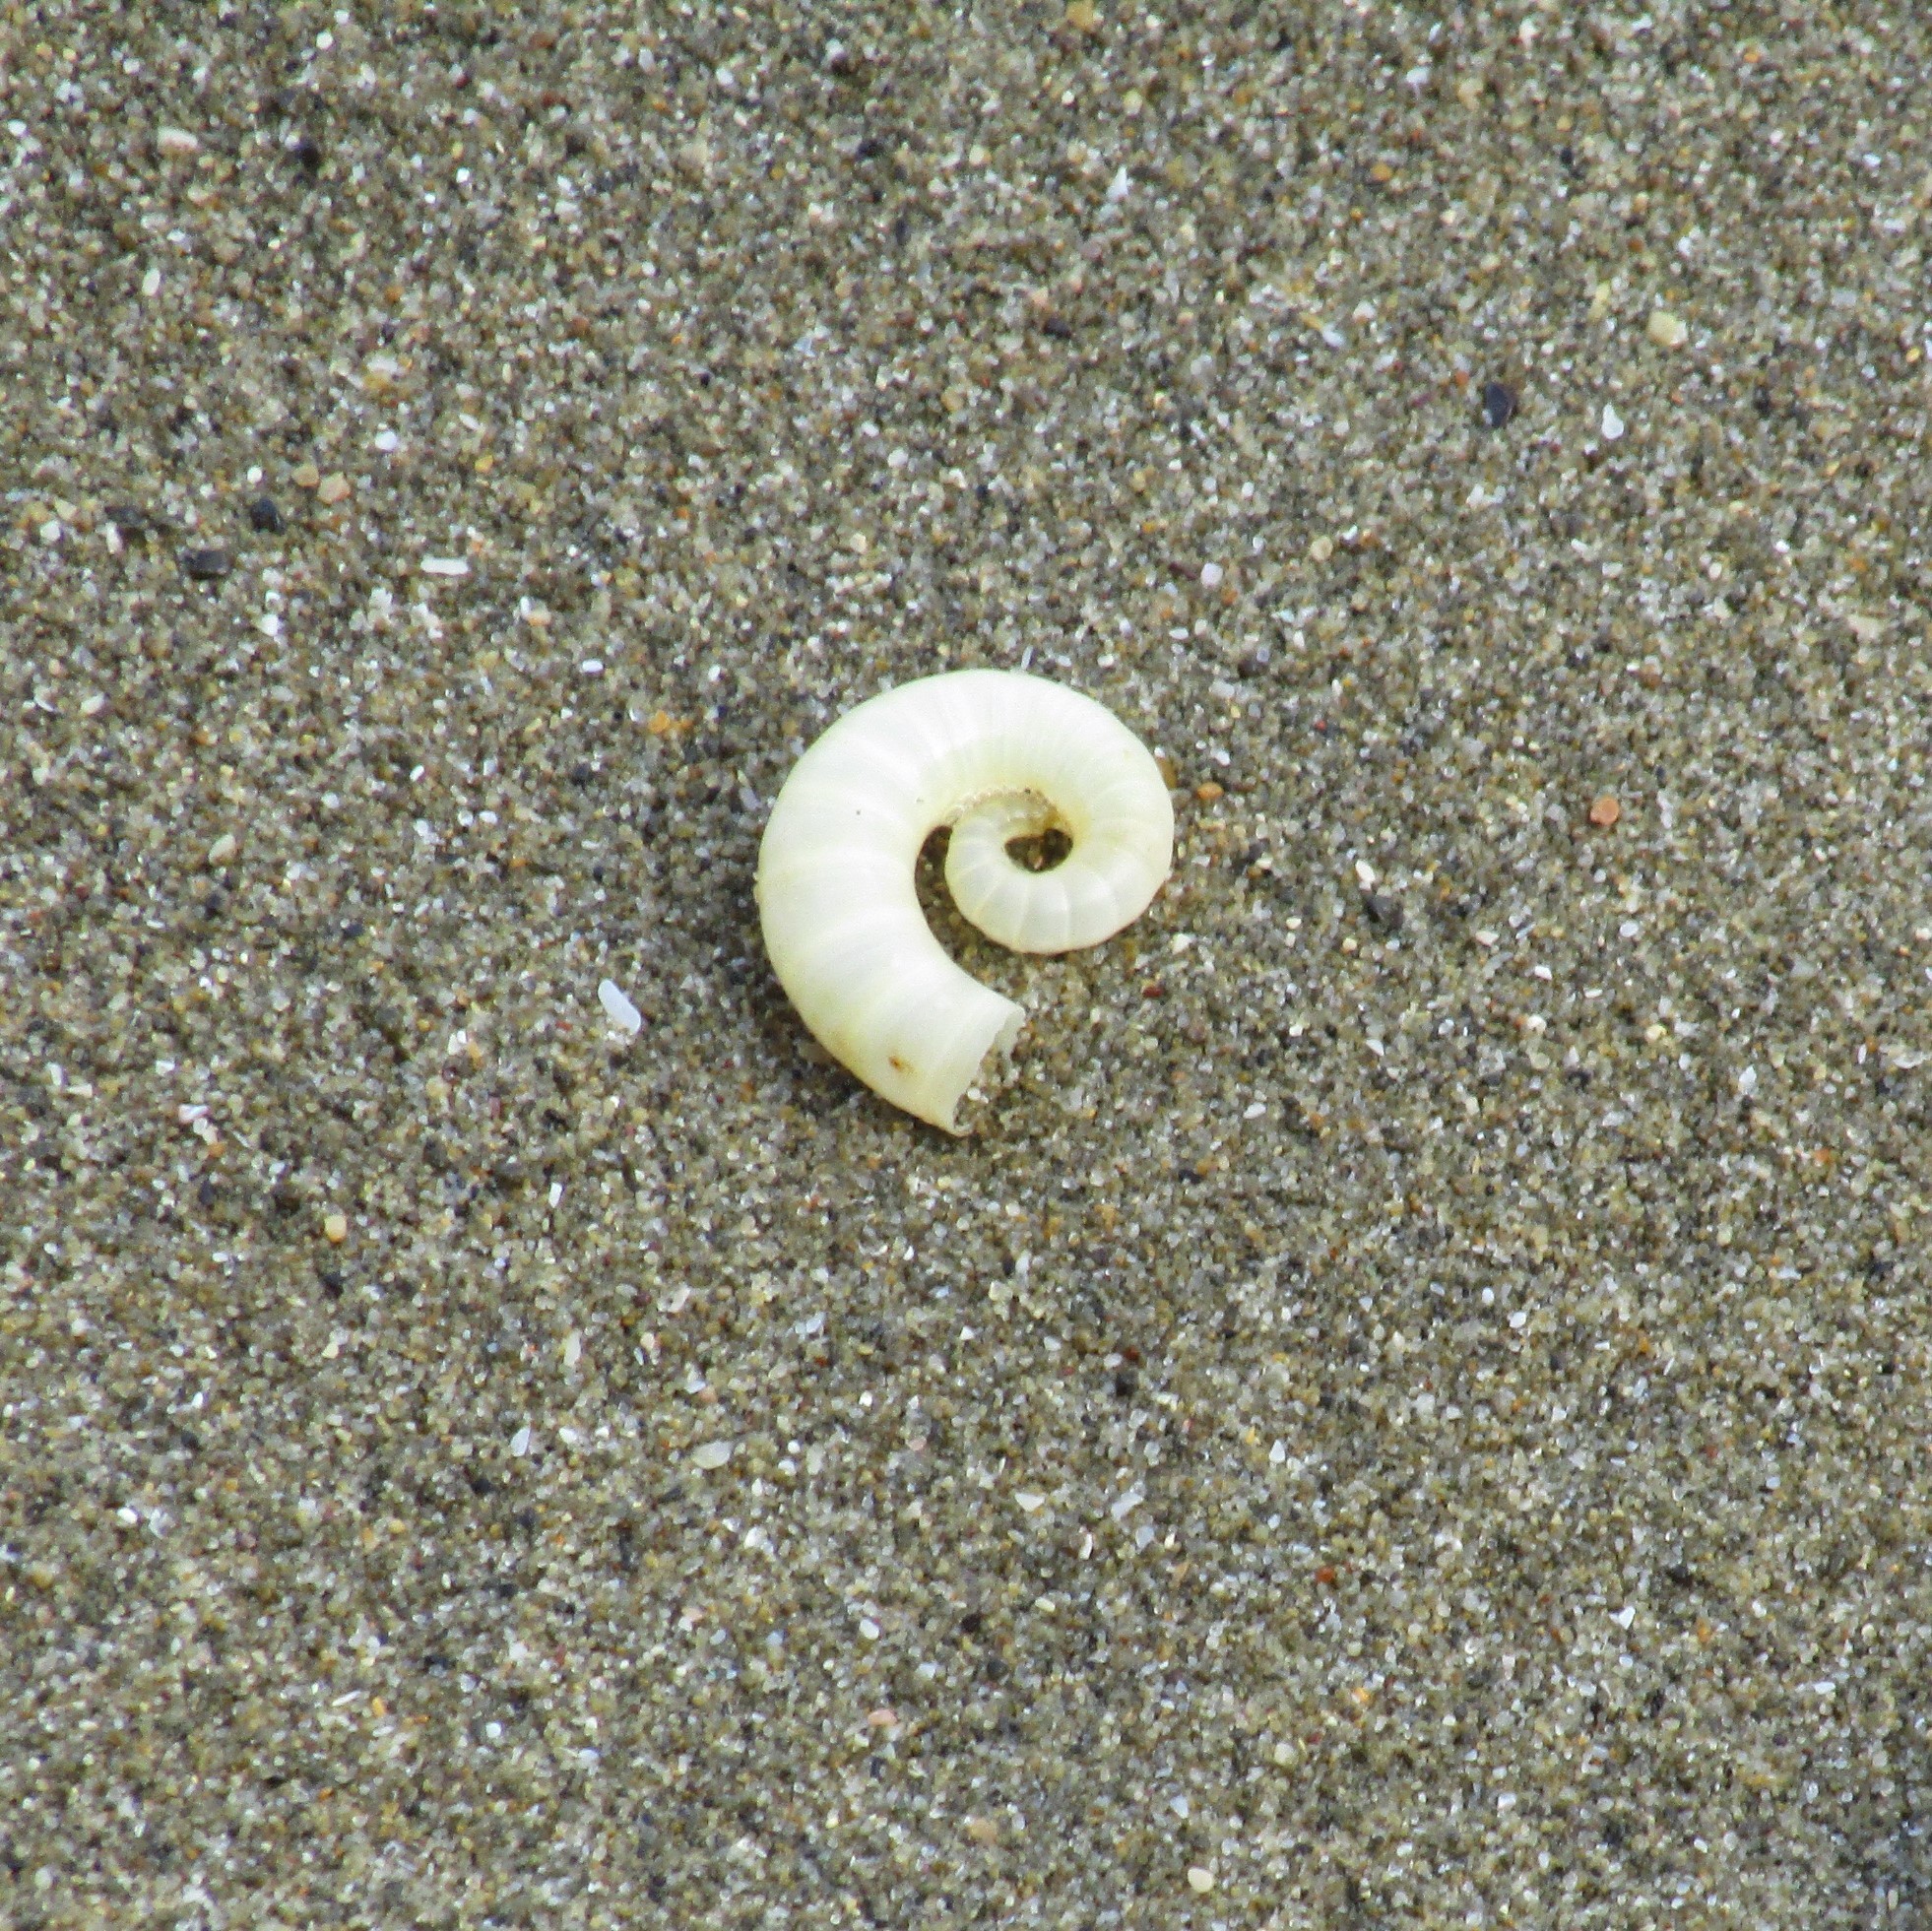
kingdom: Animalia
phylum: Mollusca
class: Cephalopoda
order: Spirulida
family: Spirulidae
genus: Spirula
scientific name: Spirula spirula
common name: Ram's horn squid
